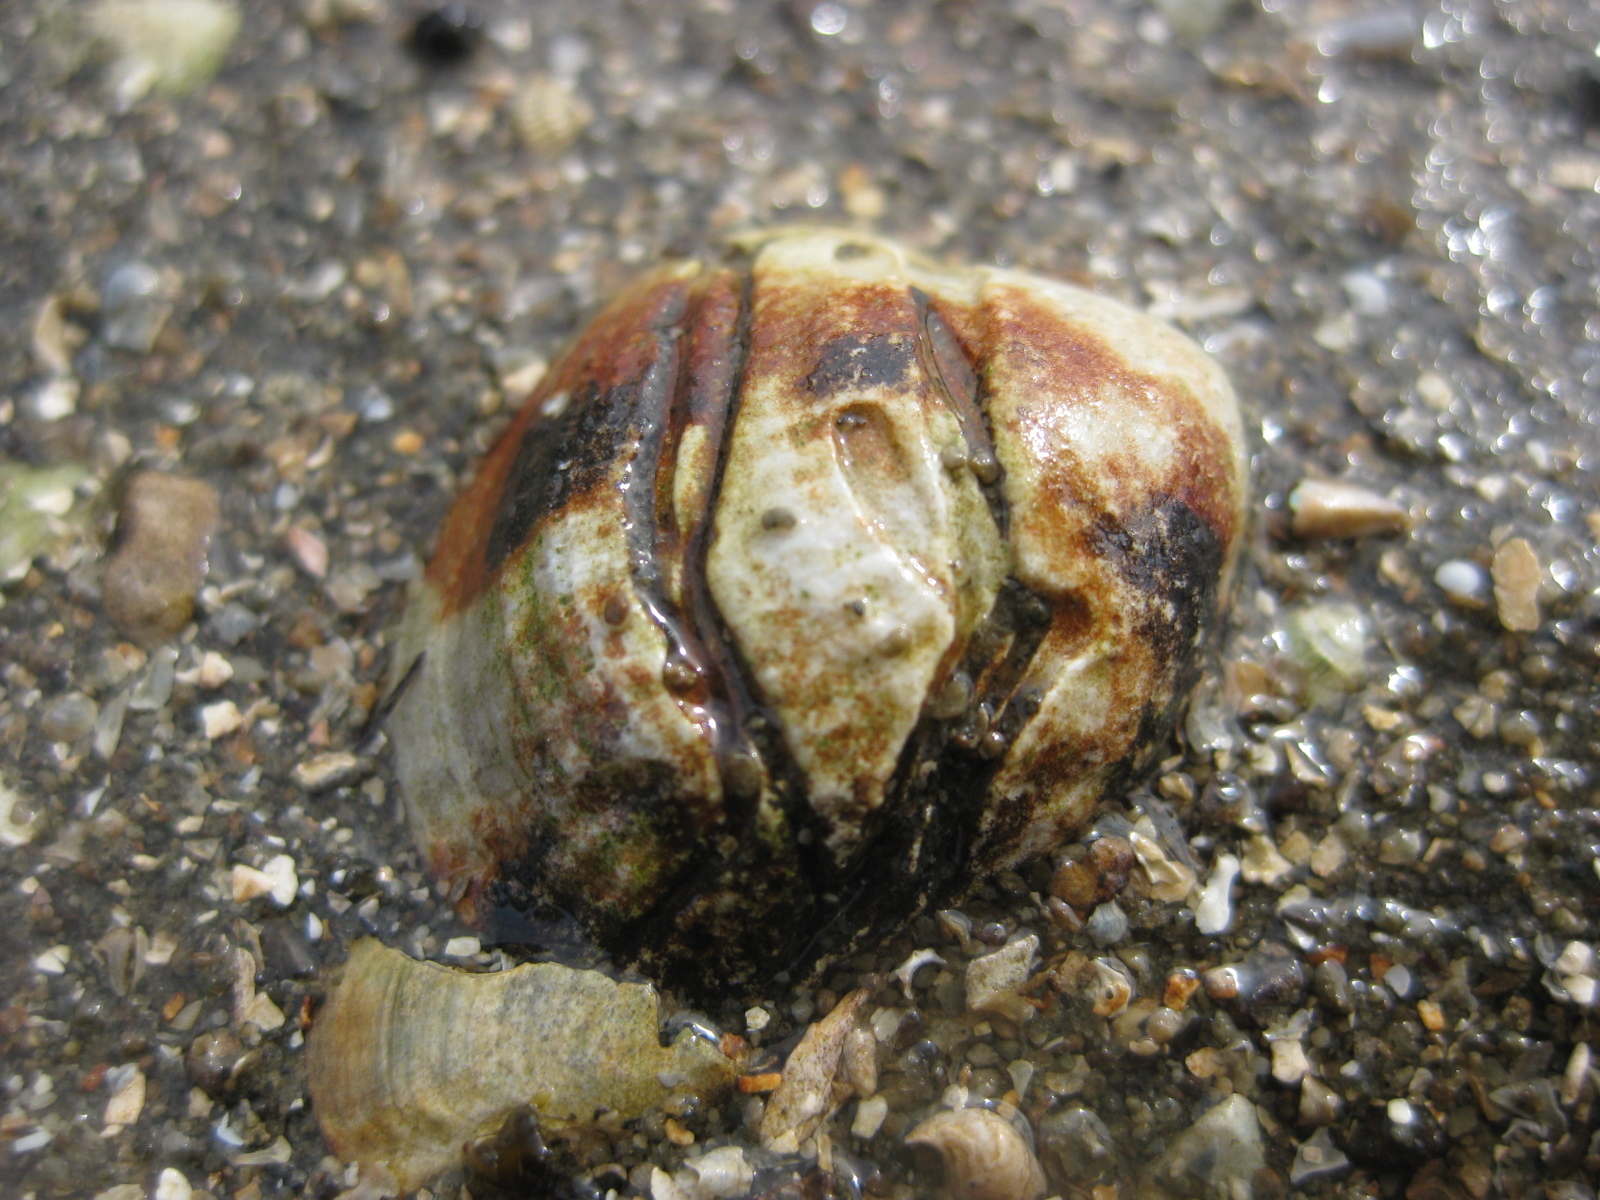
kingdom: Animalia
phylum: Annelida
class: Polychaeta
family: Spionidae
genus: Boccardia
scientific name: Boccardia acus
